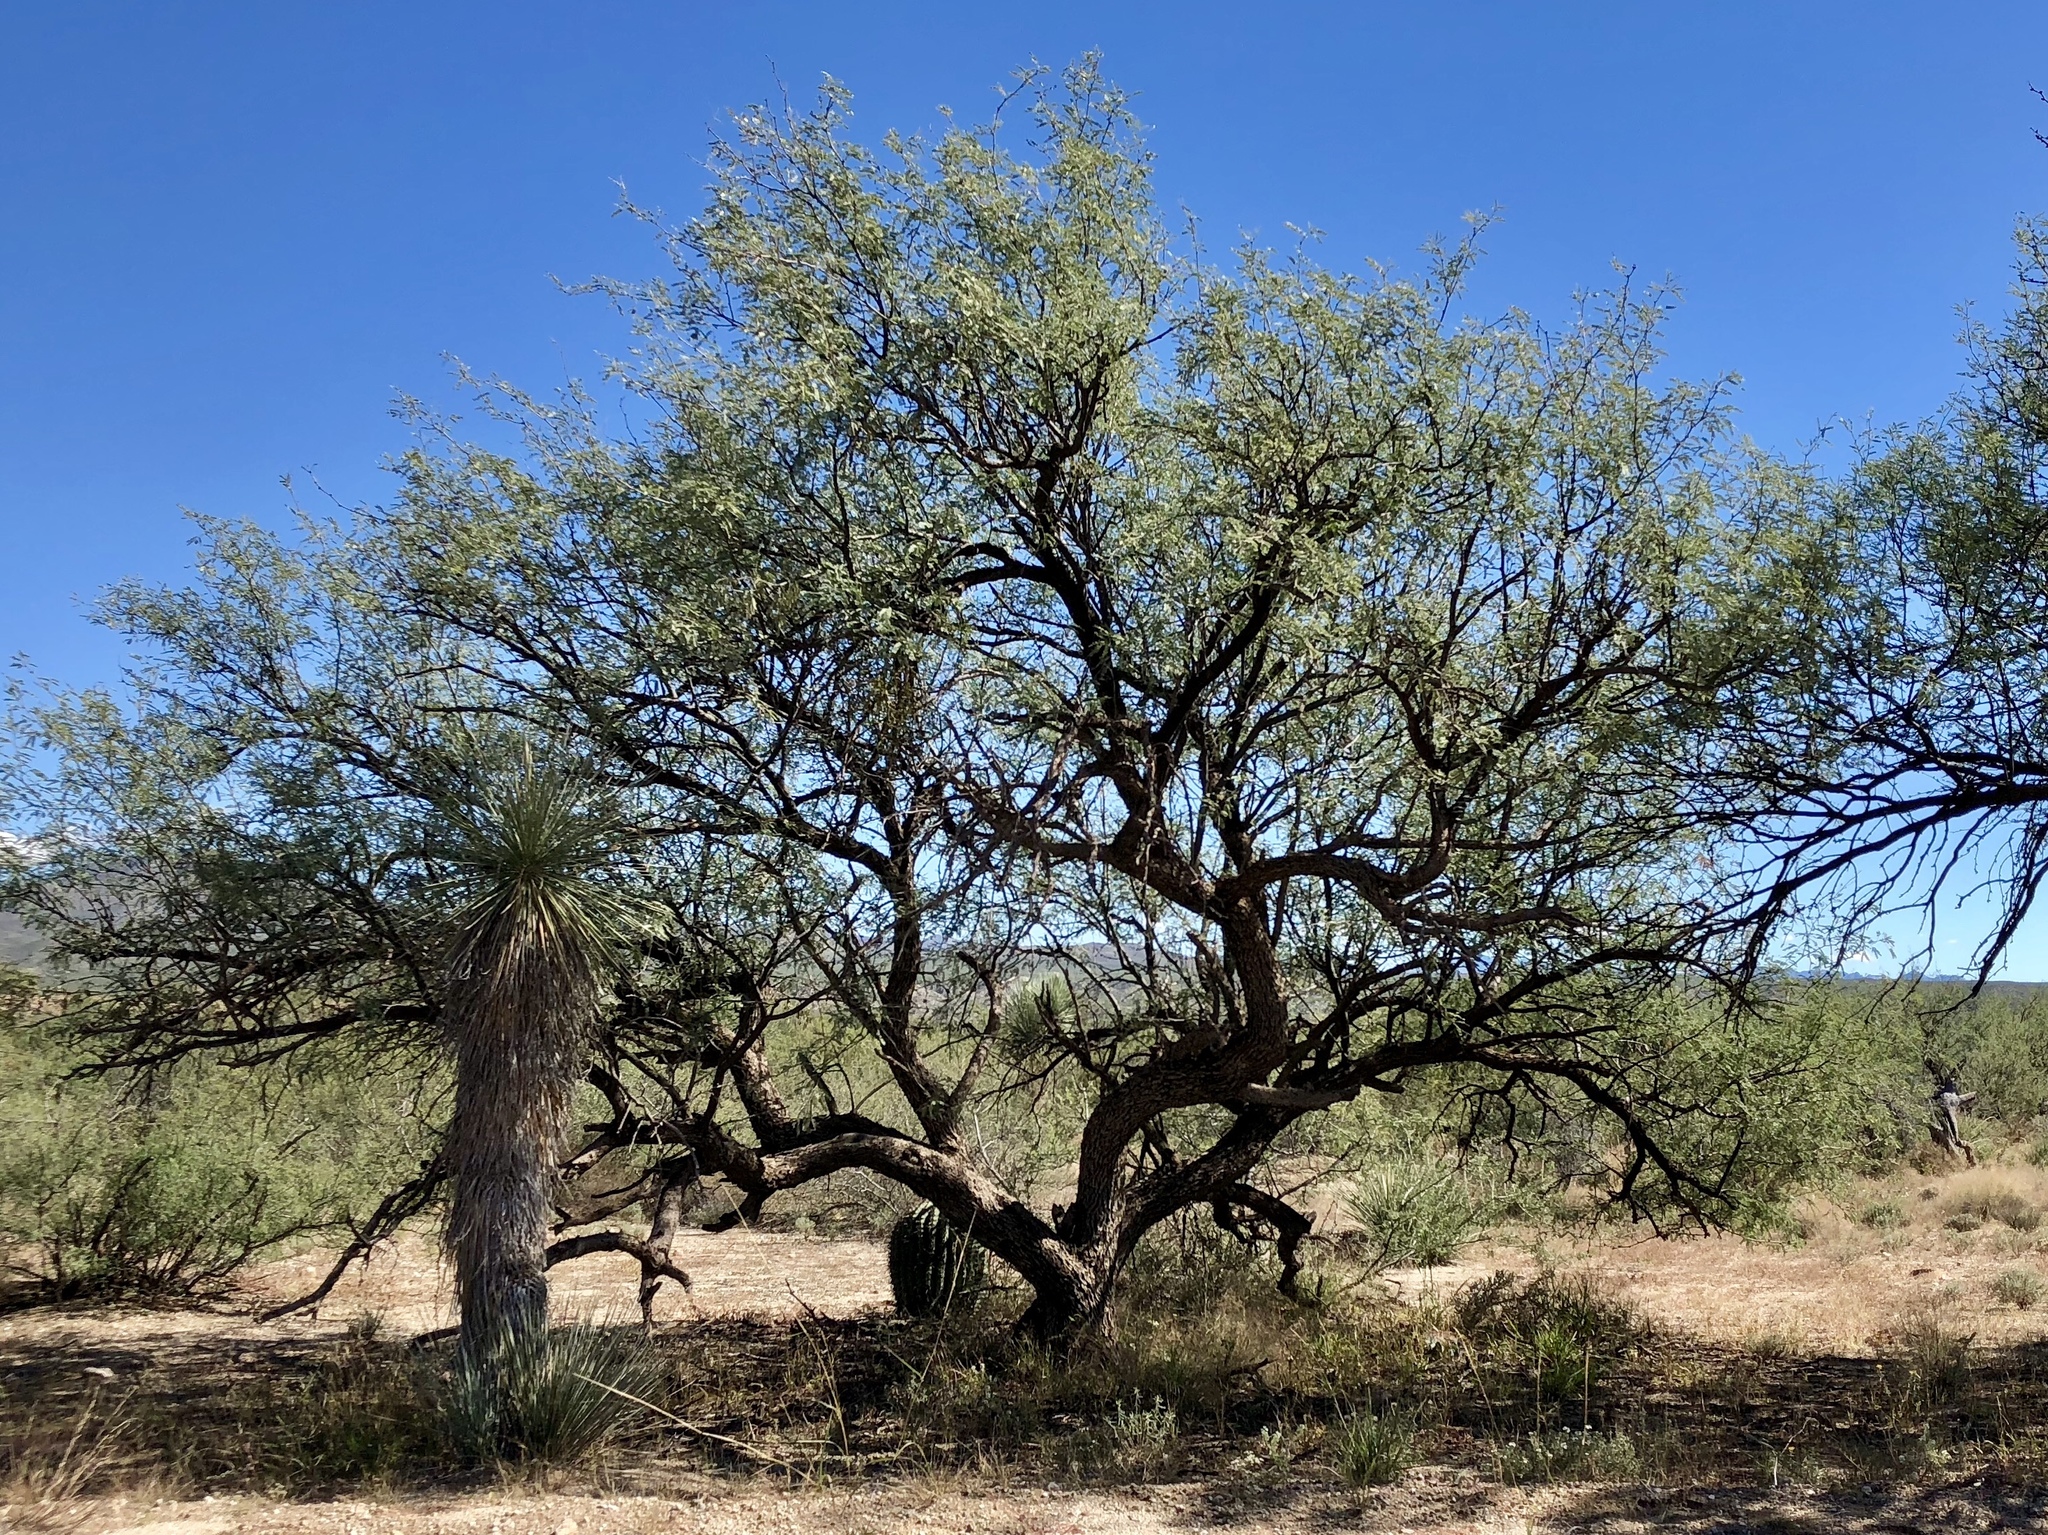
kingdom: Plantae
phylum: Tracheophyta
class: Magnoliopsida
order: Fabales
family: Fabaceae
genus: Prosopis
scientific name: Prosopis velutina
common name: Velvet mesquite
